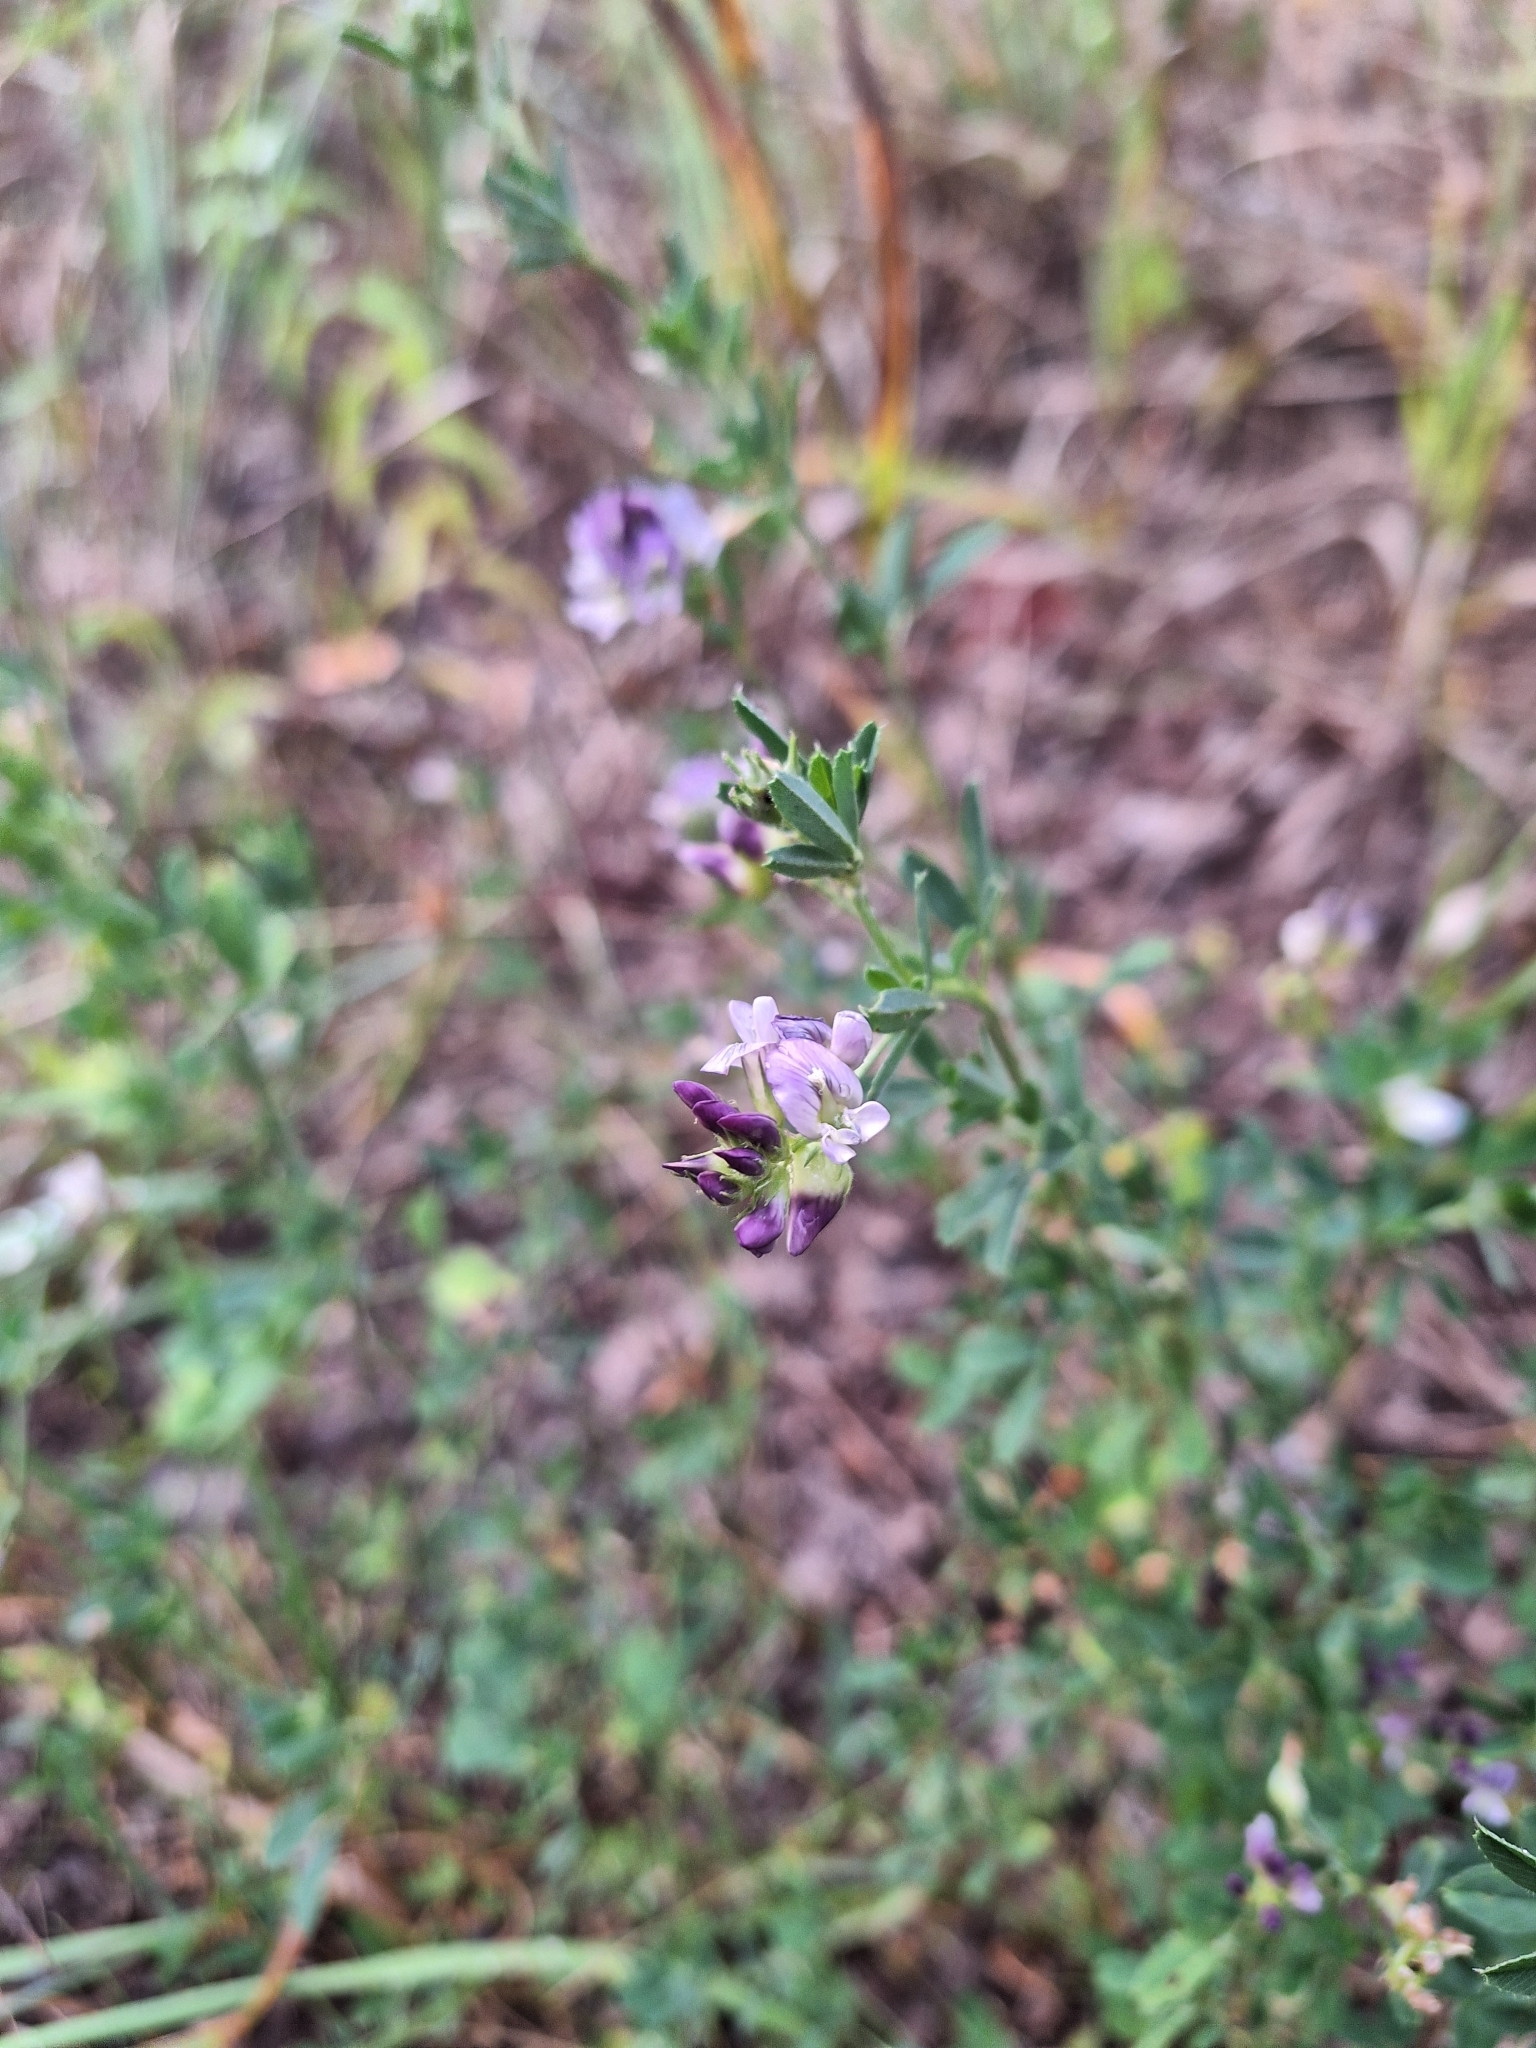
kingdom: Plantae
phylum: Tracheophyta
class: Magnoliopsida
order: Fabales
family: Fabaceae
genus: Medicago
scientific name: Medicago sativa
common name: Alfalfa
